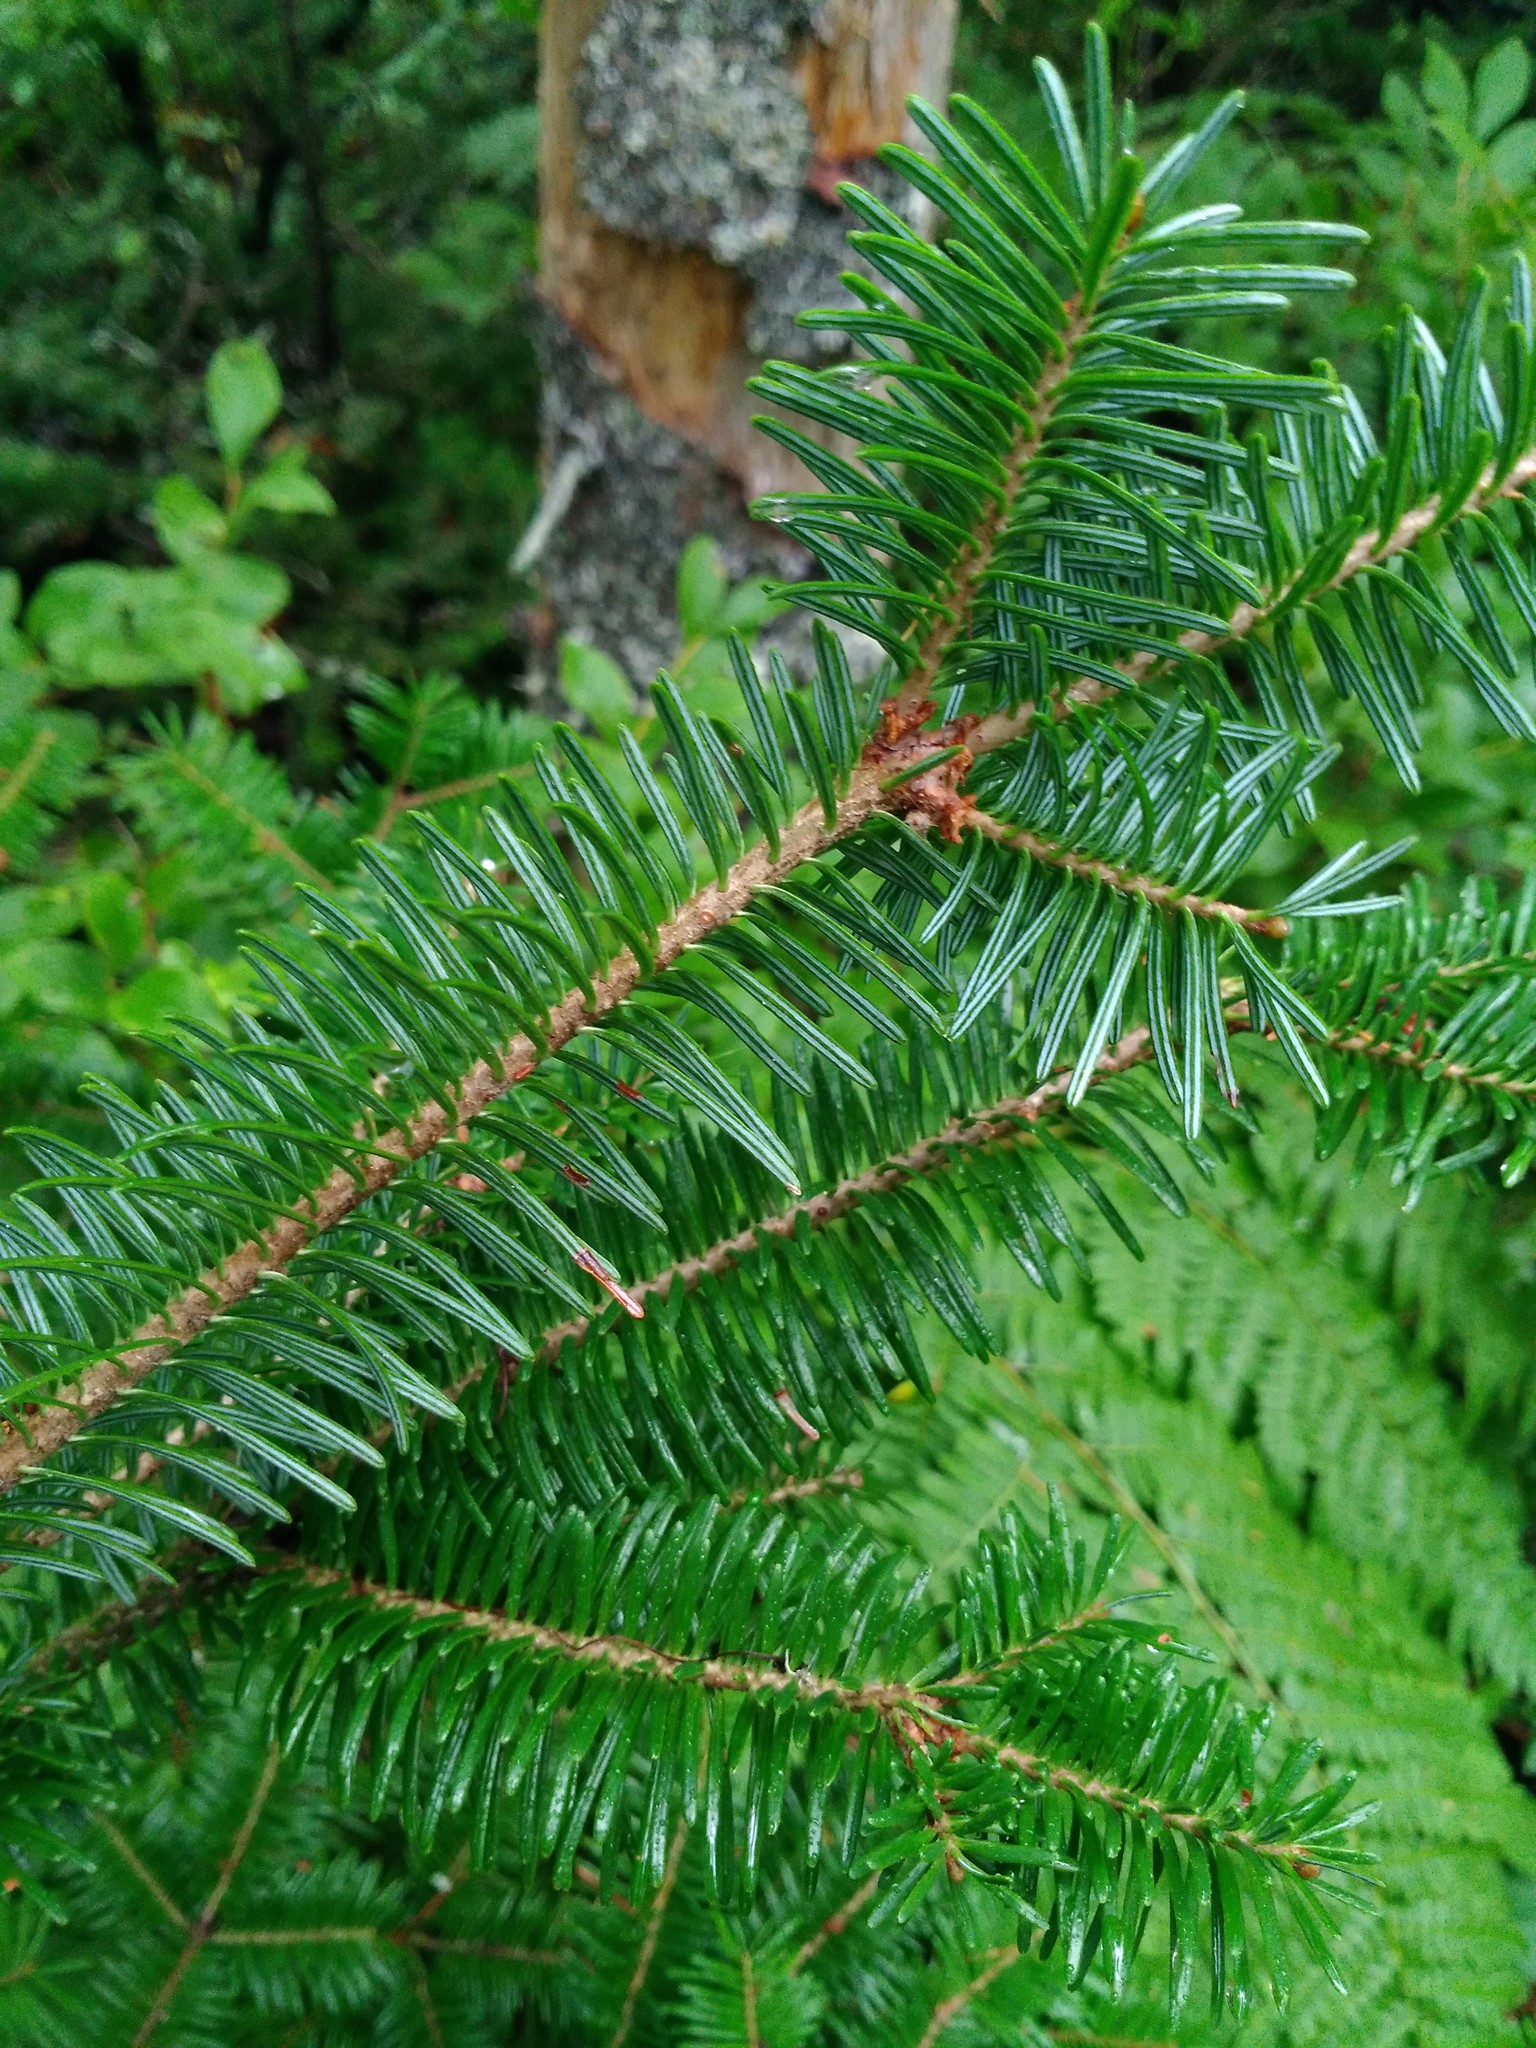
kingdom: Plantae
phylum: Tracheophyta
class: Pinopsida
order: Pinales
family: Pinaceae
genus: Abies
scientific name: Abies balsamea
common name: Balsam fir
